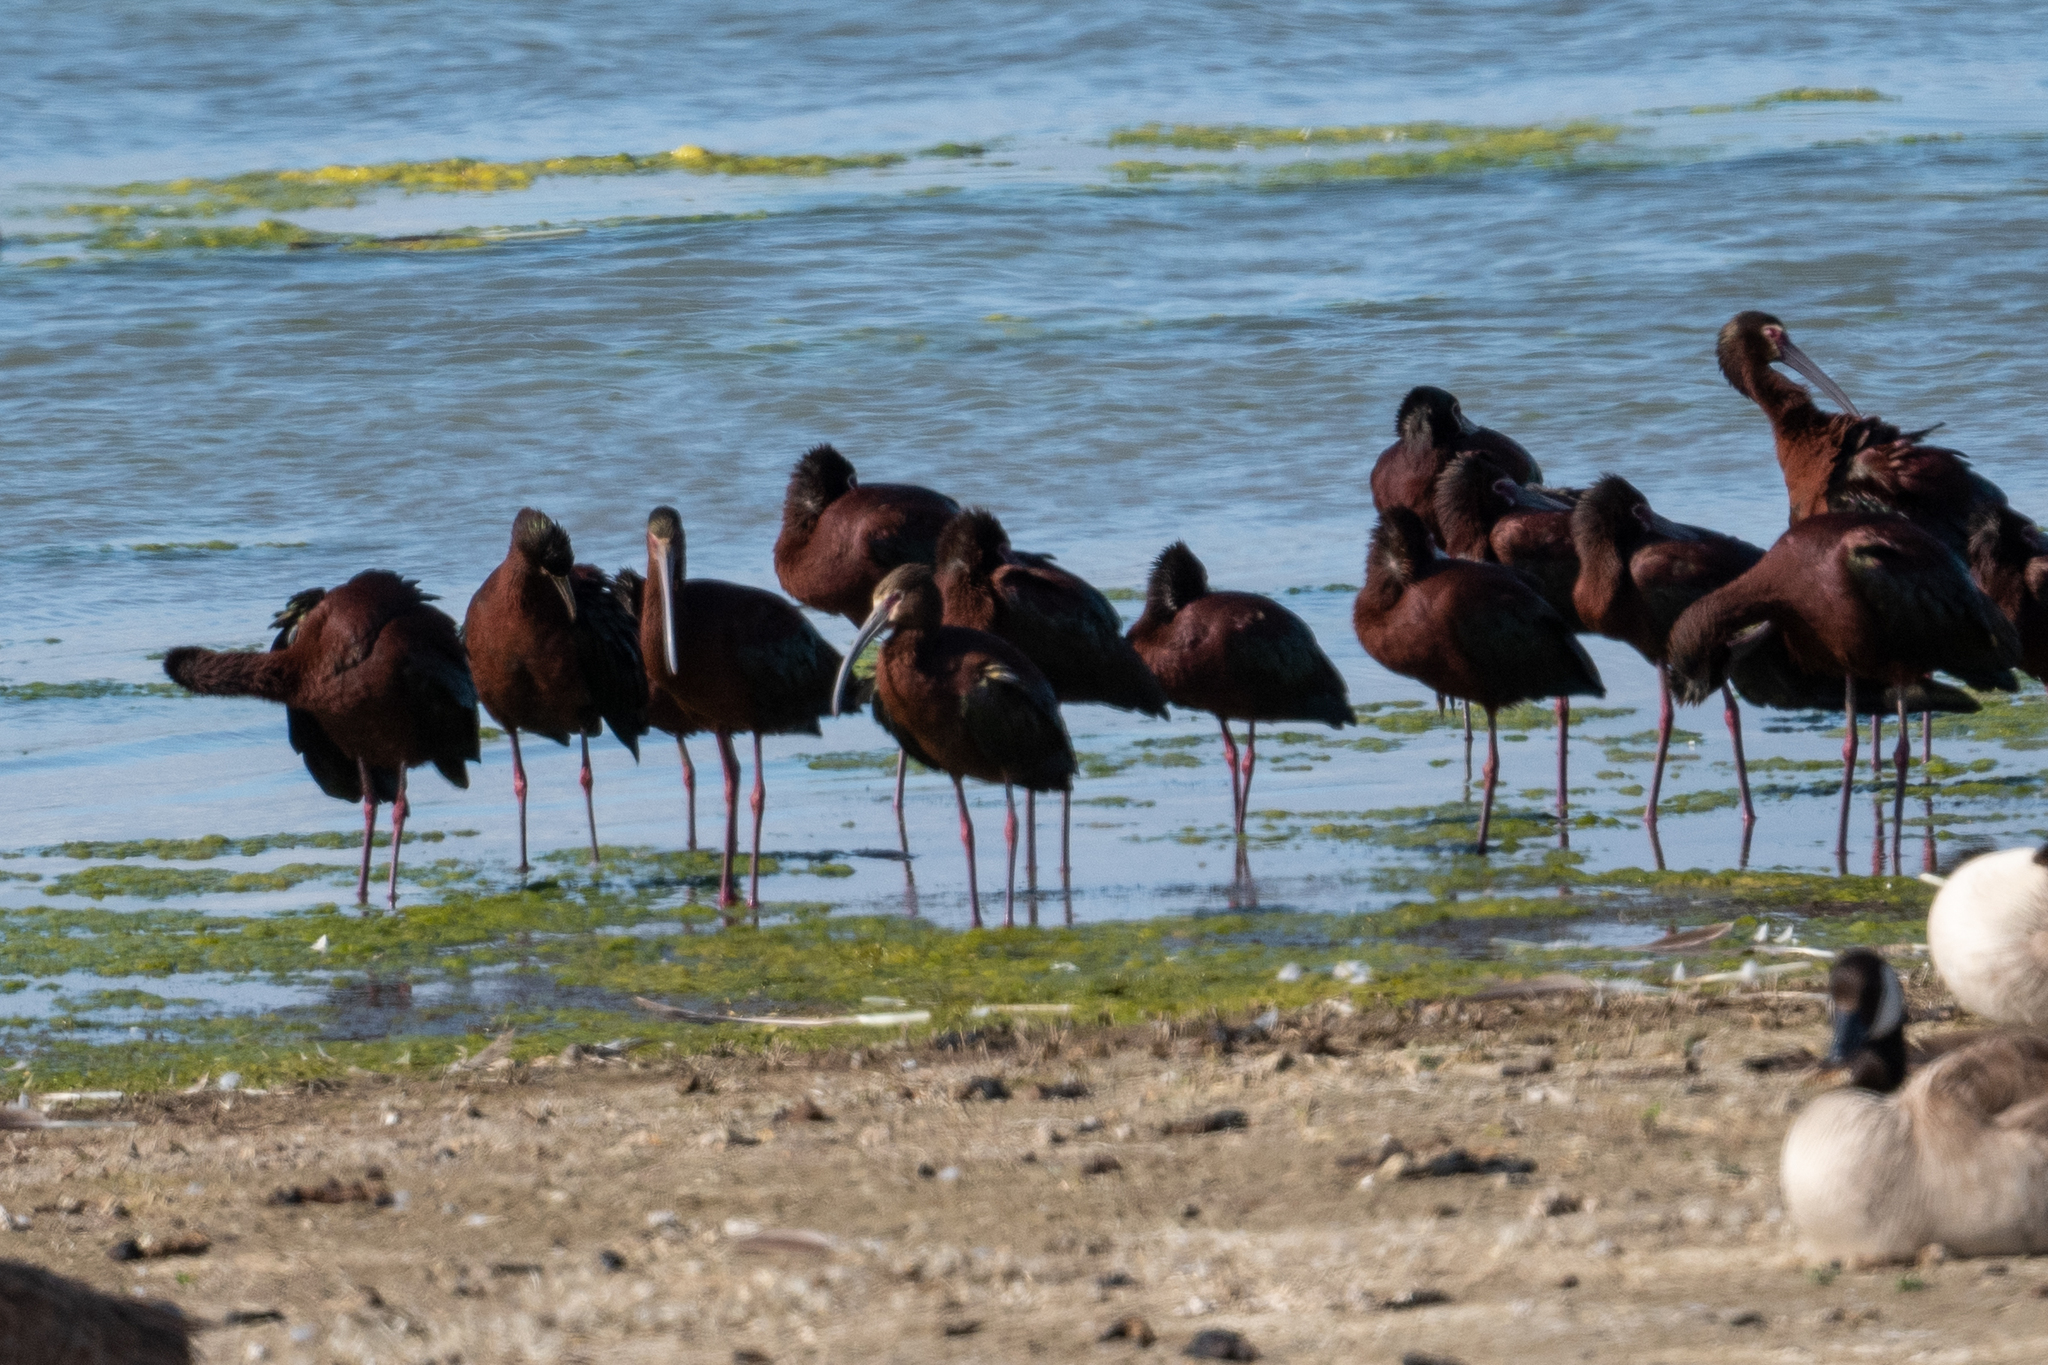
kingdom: Animalia
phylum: Chordata
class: Aves
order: Pelecaniformes
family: Threskiornithidae
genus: Plegadis
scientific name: Plegadis chihi
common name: White-faced ibis
